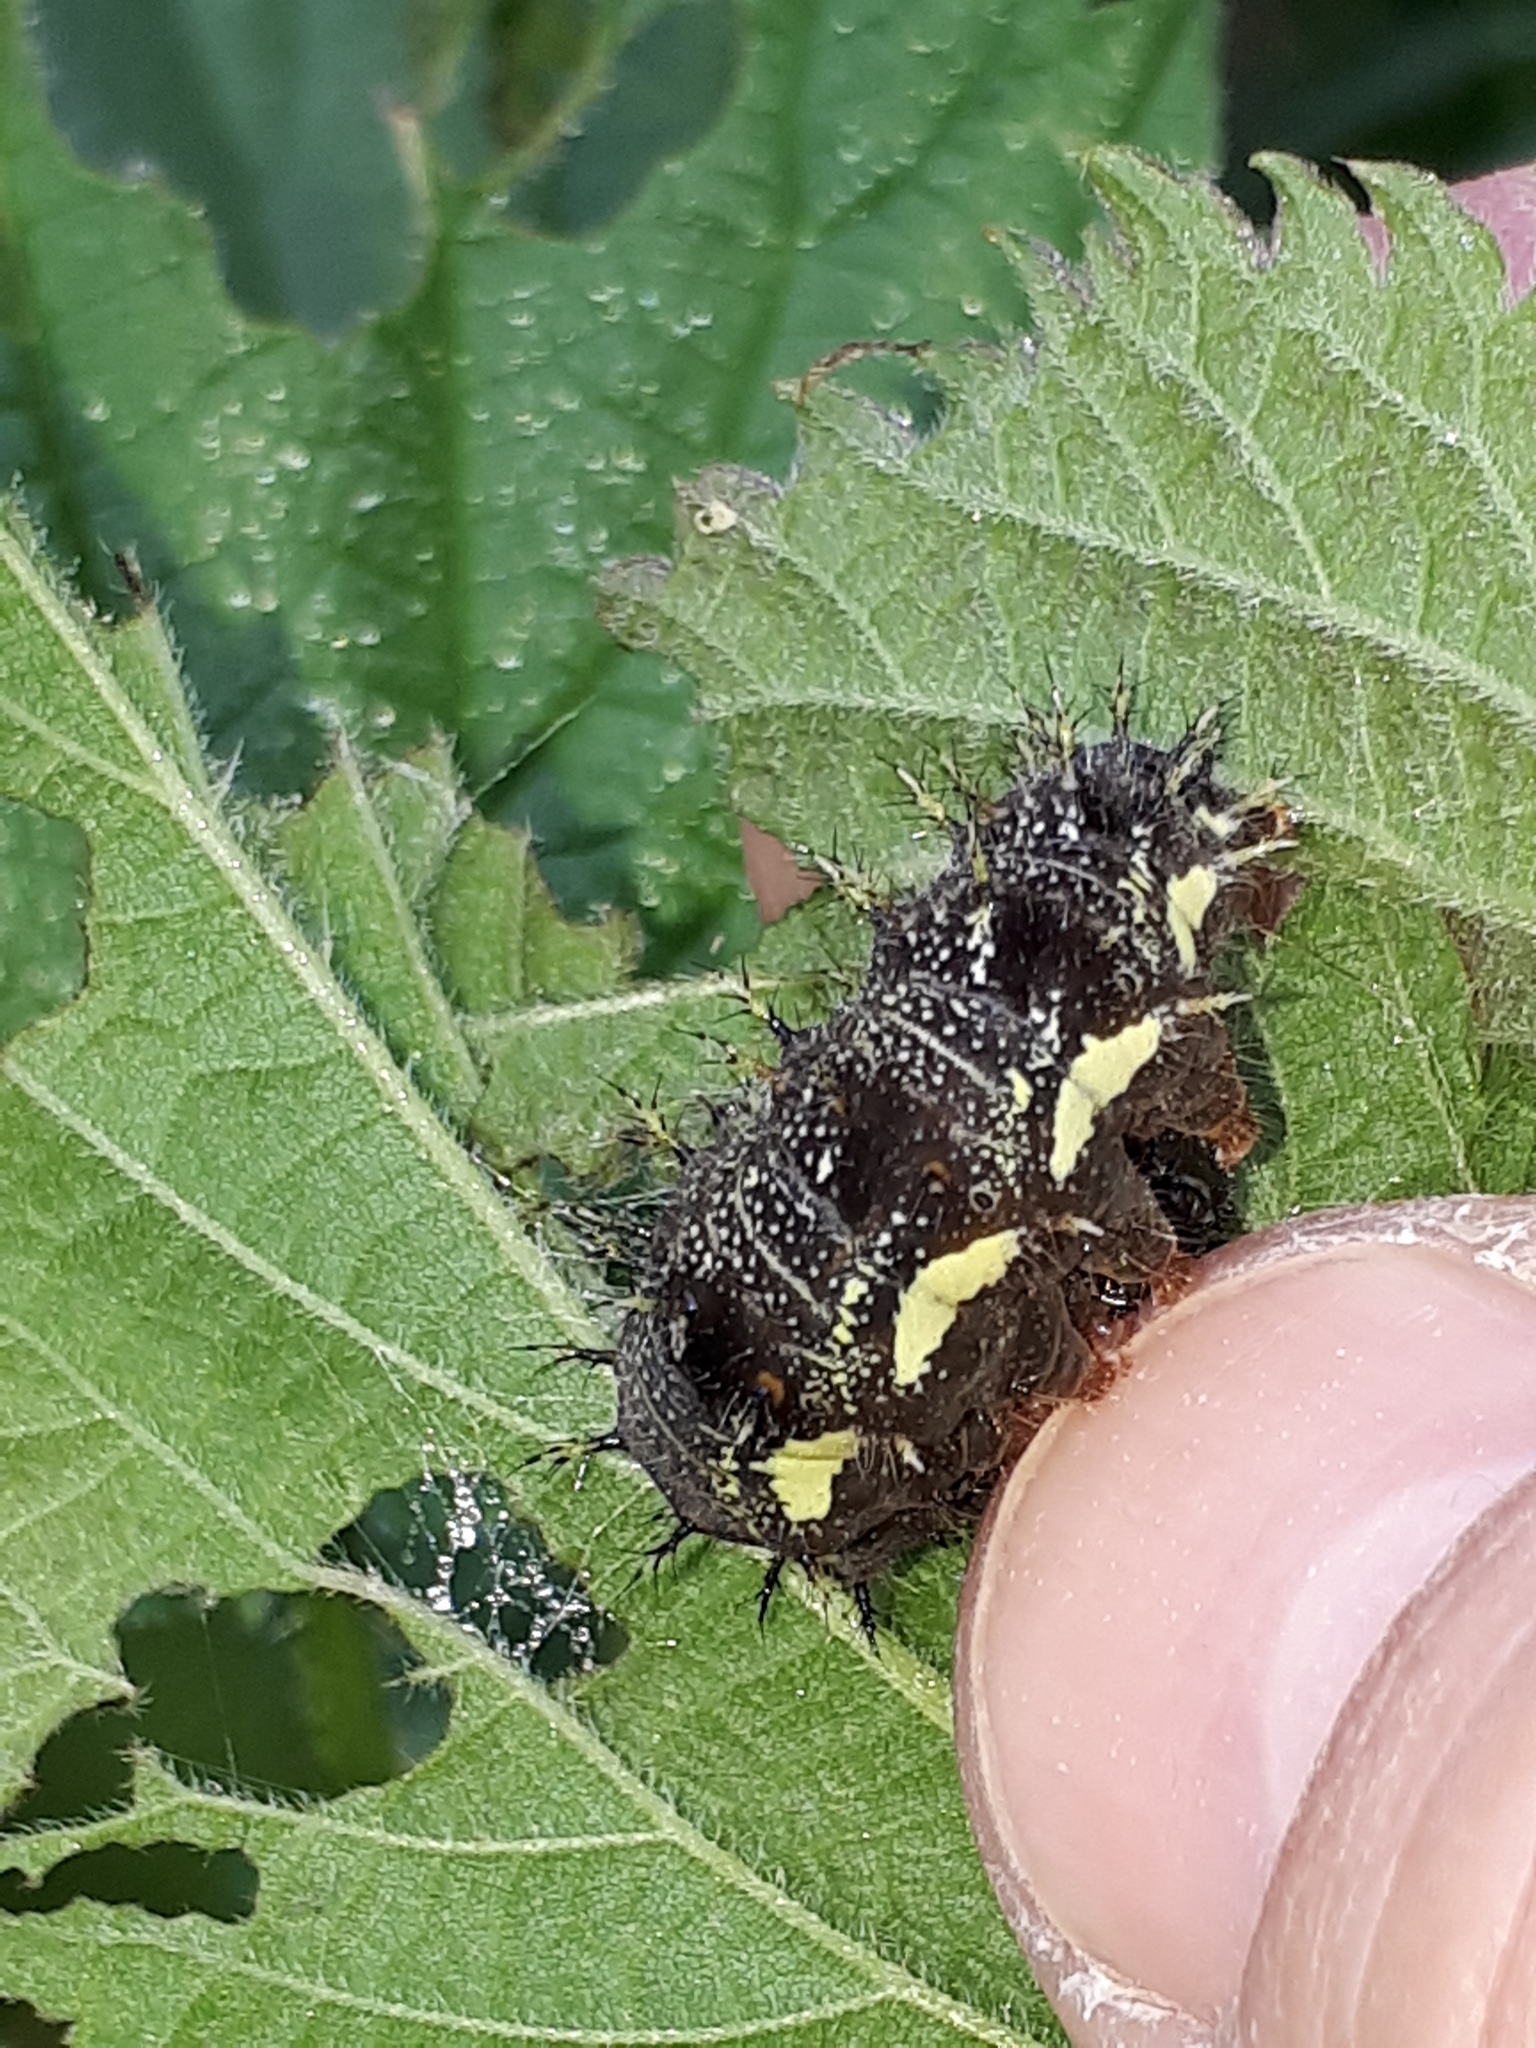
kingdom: Animalia
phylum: Arthropoda
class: Insecta
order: Lepidoptera
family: Nymphalidae
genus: Vanessa
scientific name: Vanessa atalanta
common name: Red admiral
